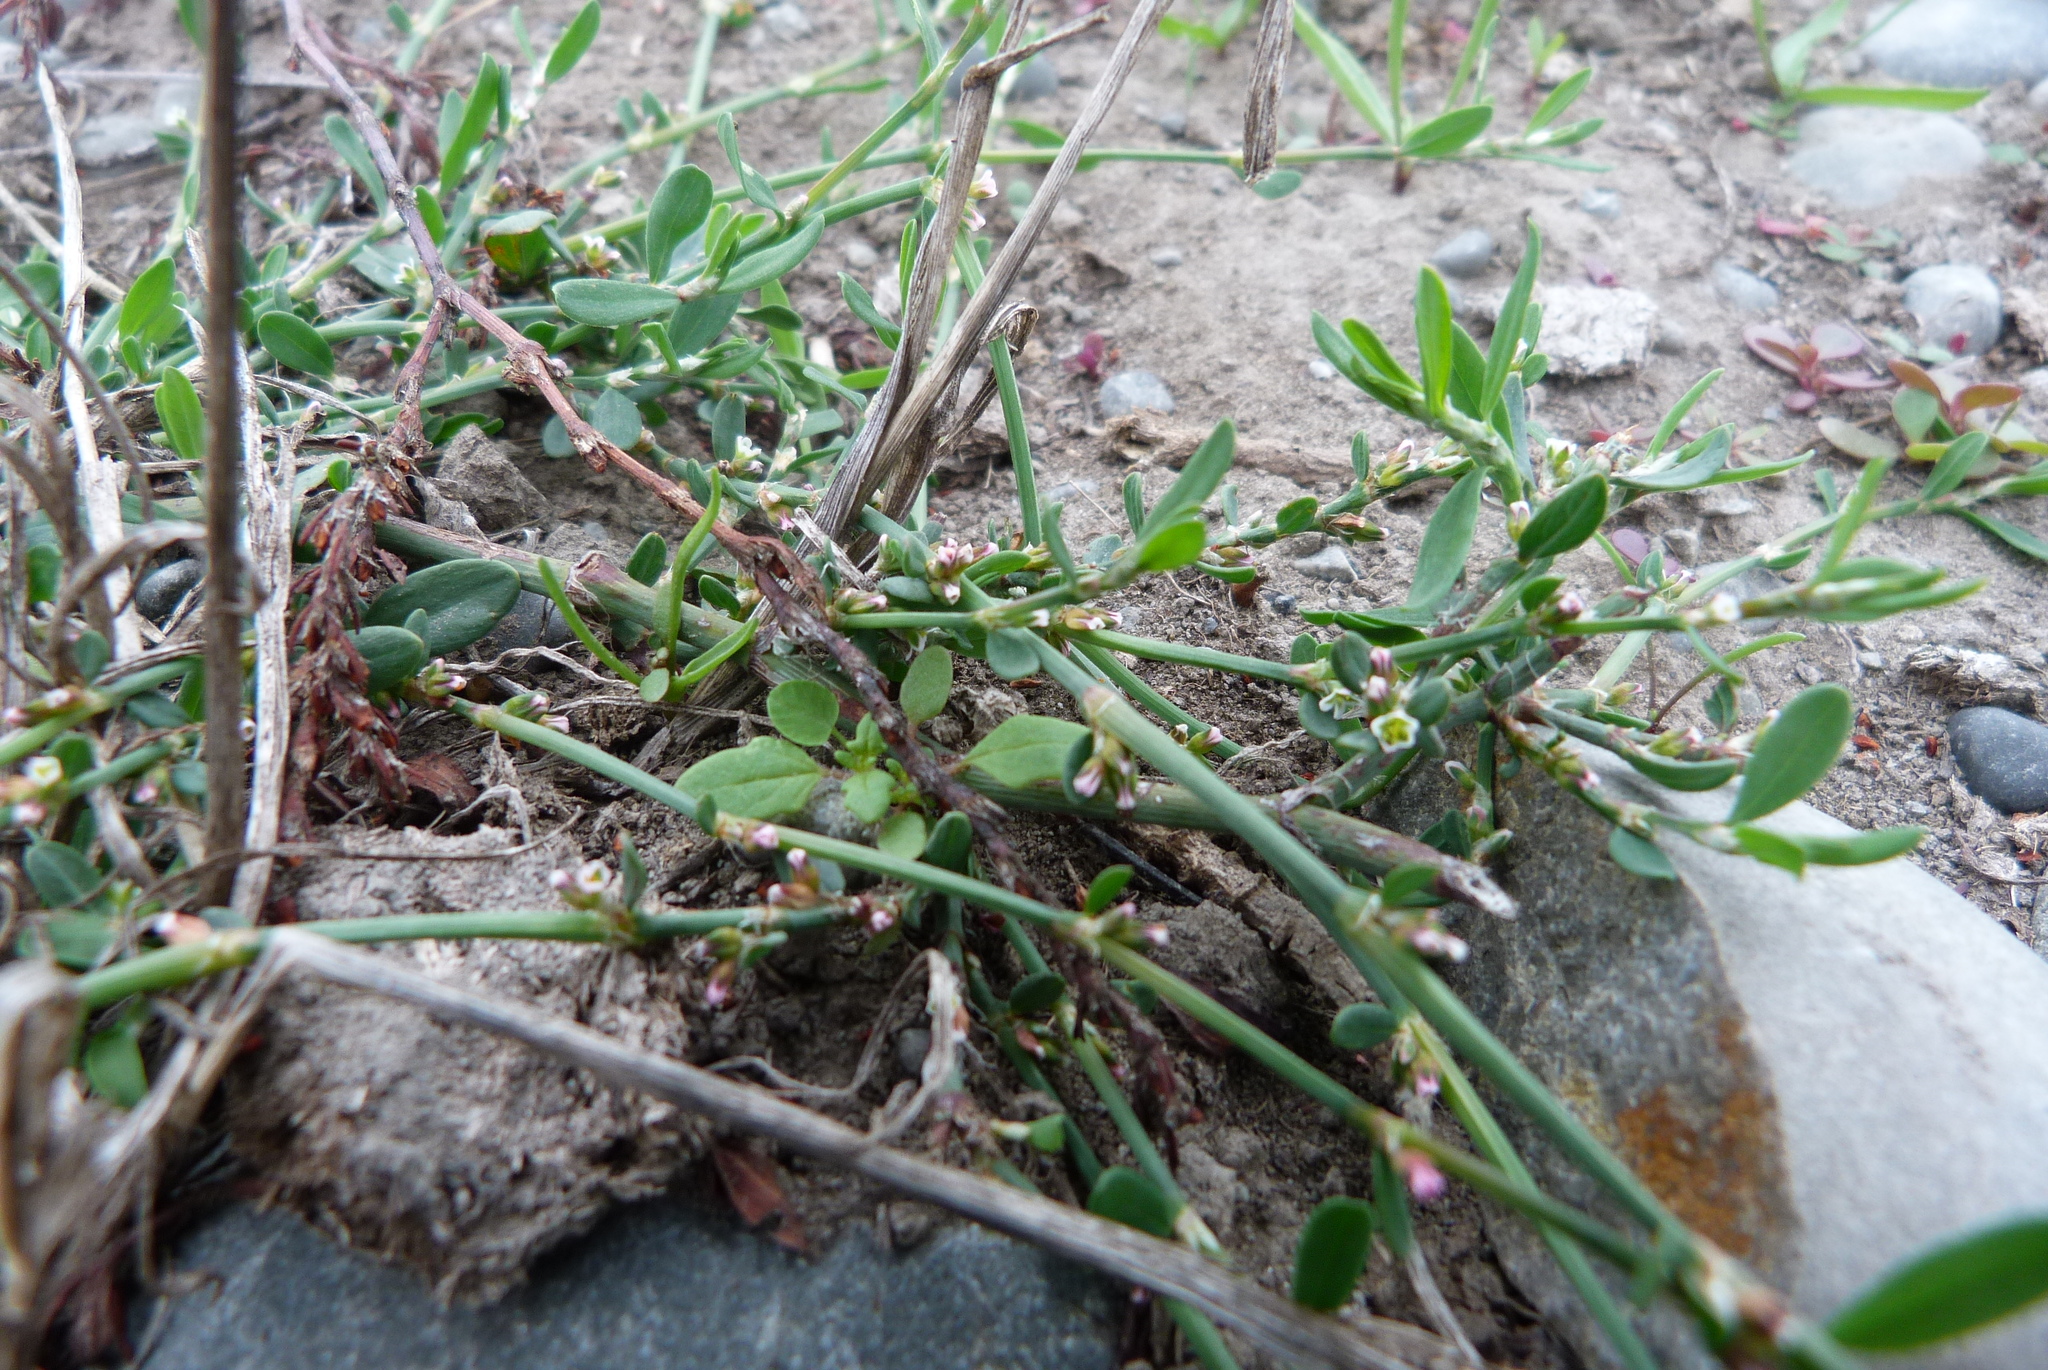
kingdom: Plantae
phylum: Tracheophyta
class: Magnoliopsida
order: Caryophyllales
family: Polygonaceae
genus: Polygonum
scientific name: Polygonum aviculare
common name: Prostrate knotweed
